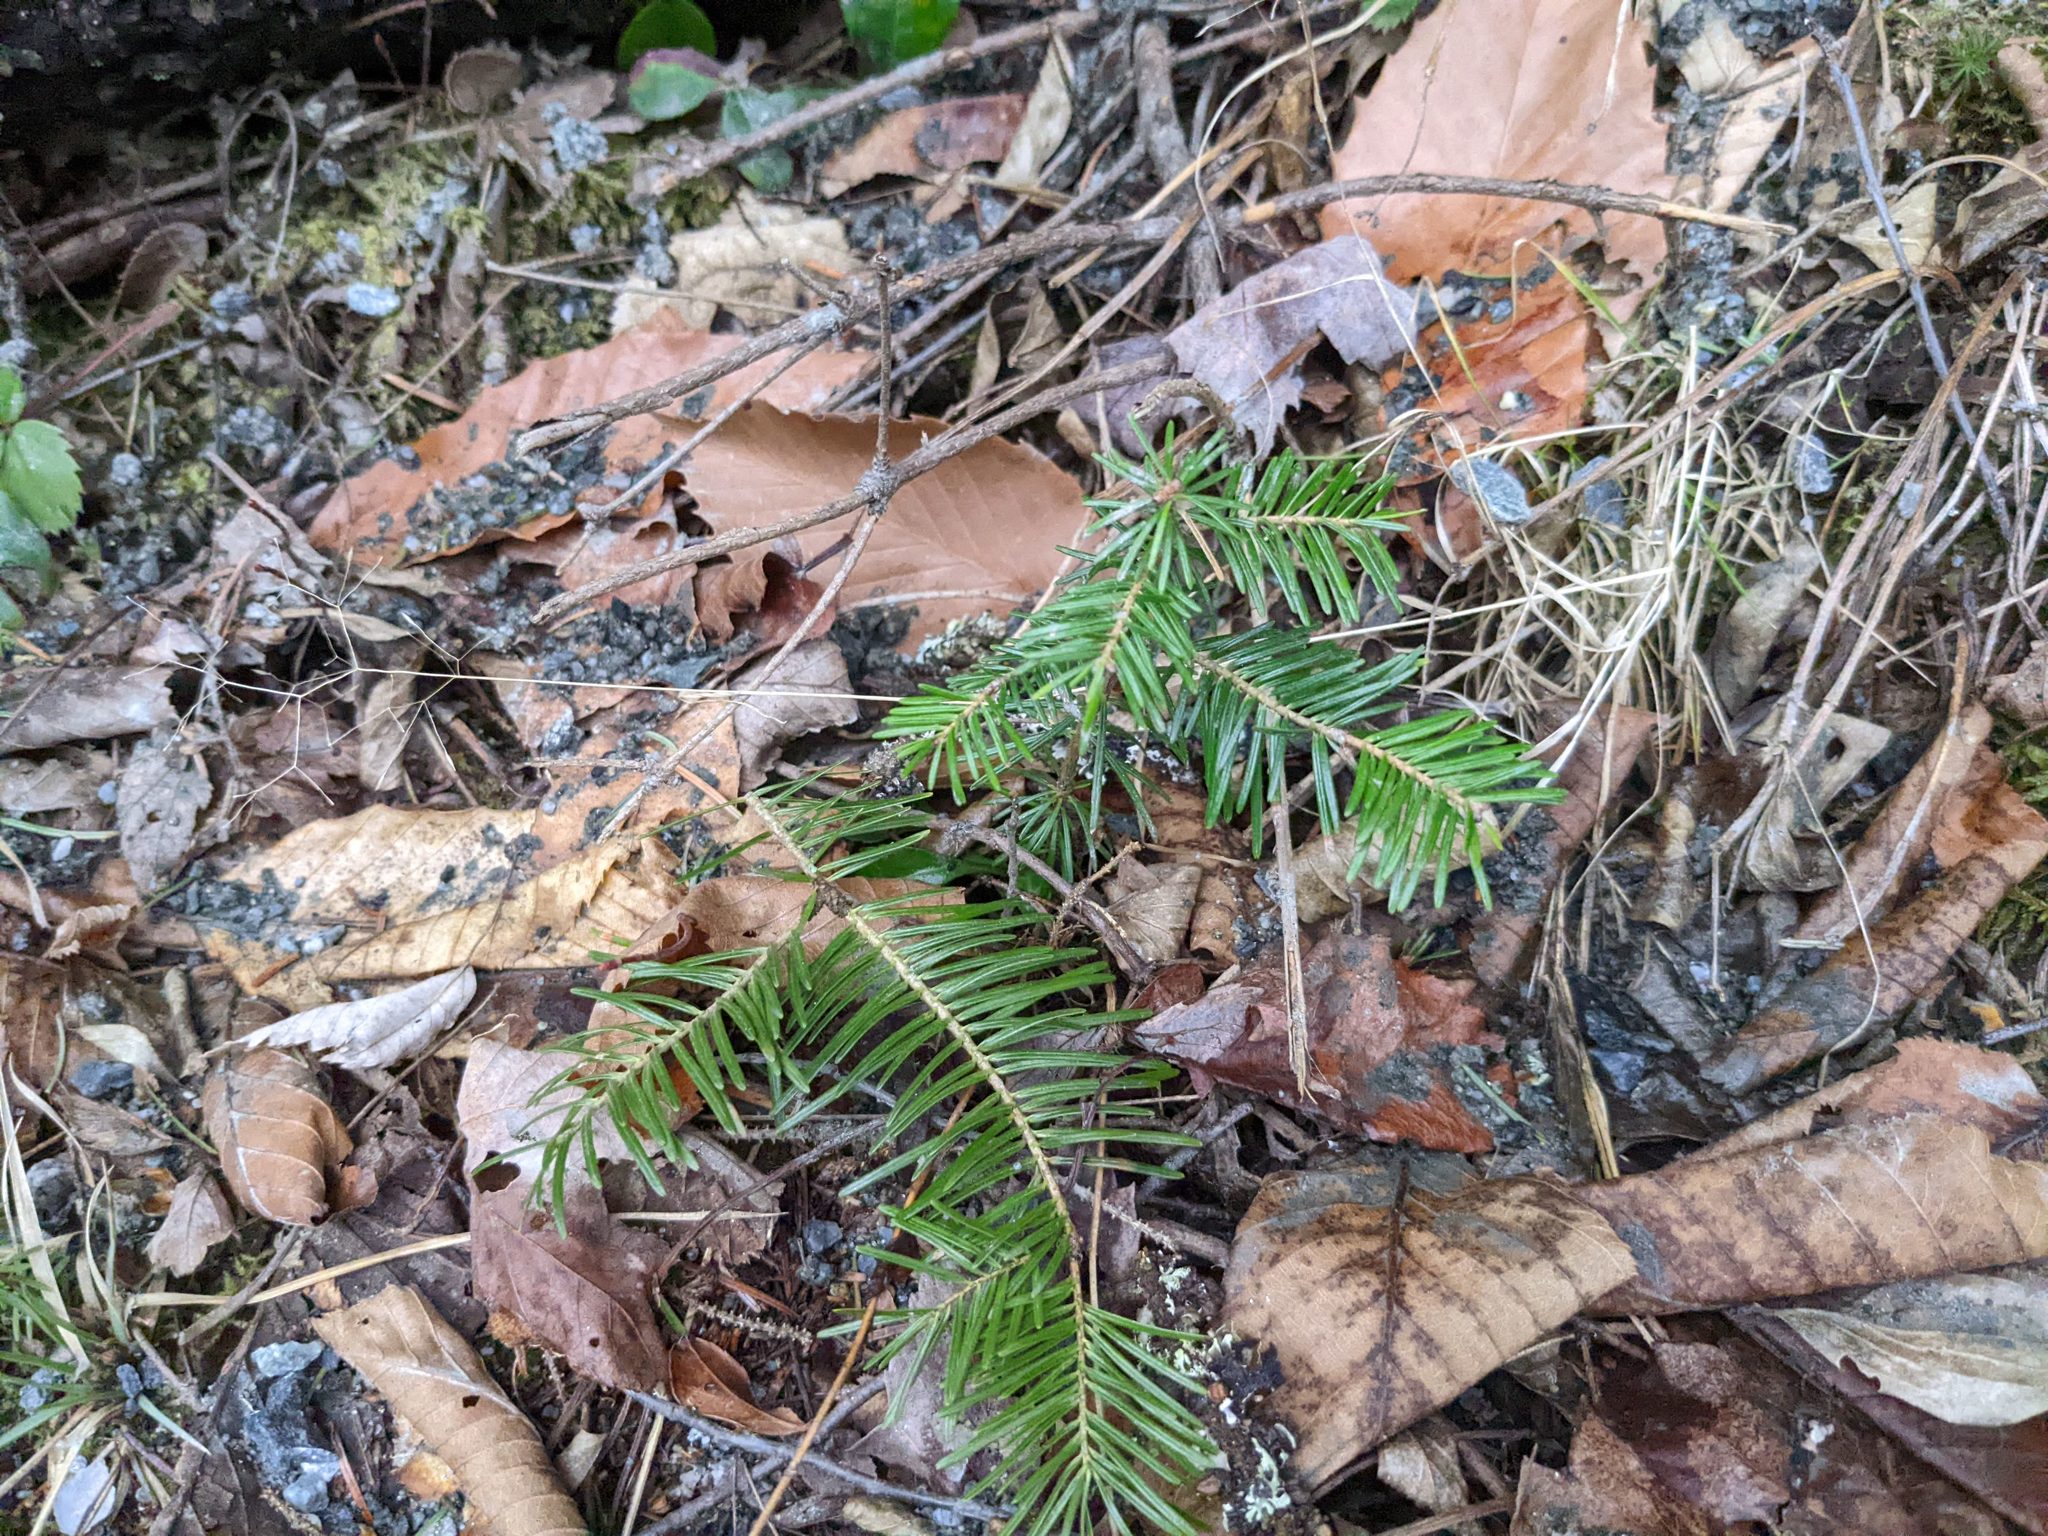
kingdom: Plantae
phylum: Tracheophyta
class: Pinopsida
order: Pinales
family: Pinaceae
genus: Abies
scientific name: Abies balsamea
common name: Balsam fir
